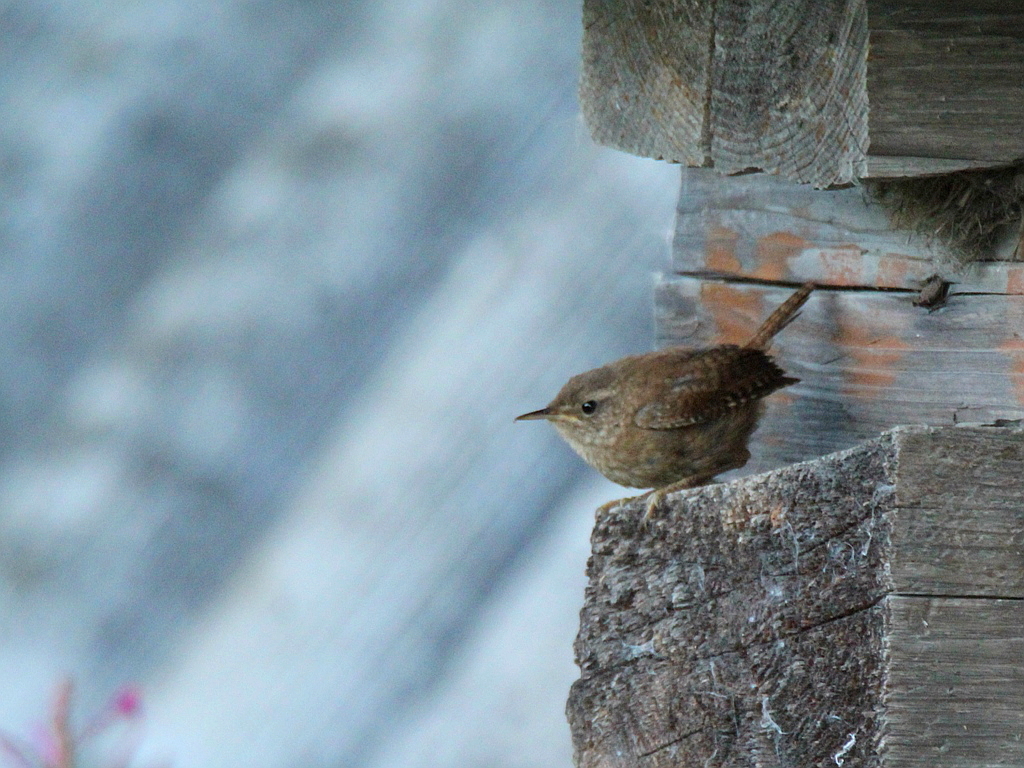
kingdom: Animalia
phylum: Chordata
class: Aves
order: Passeriformes
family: Troglodytidae
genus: Troglodytes
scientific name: Troglodytes troglodytes
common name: Eurasian wren
